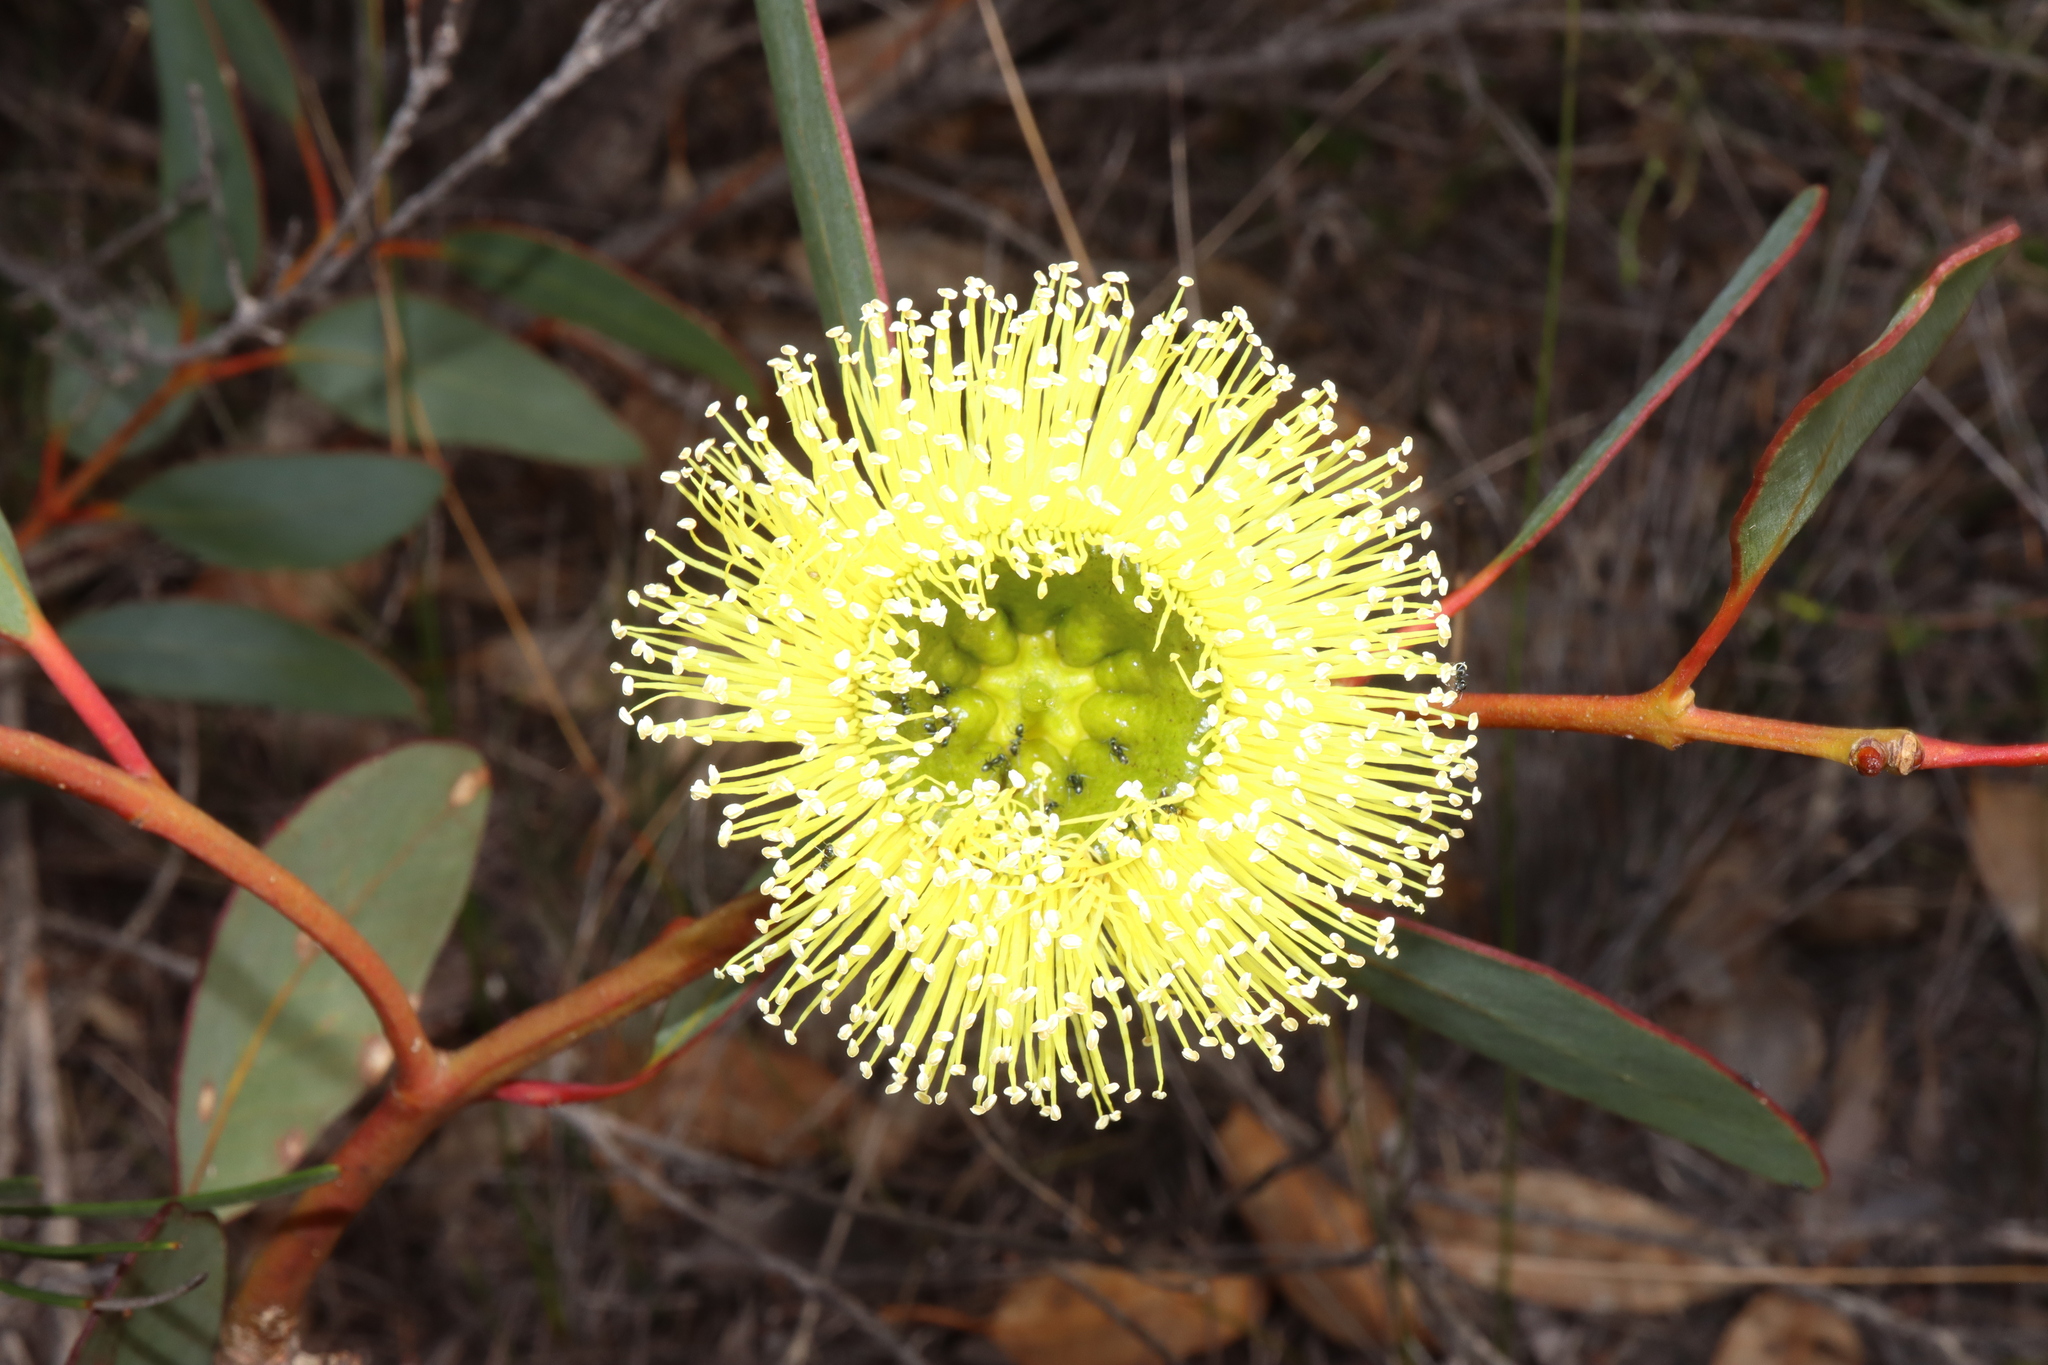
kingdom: Plantae
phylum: Tracheophyta
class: Magnoliopsida
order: Myrtales
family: Myrtaceae
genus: Eucalyptus
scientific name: Eucalyptus preissiana
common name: Stirling range mallee
